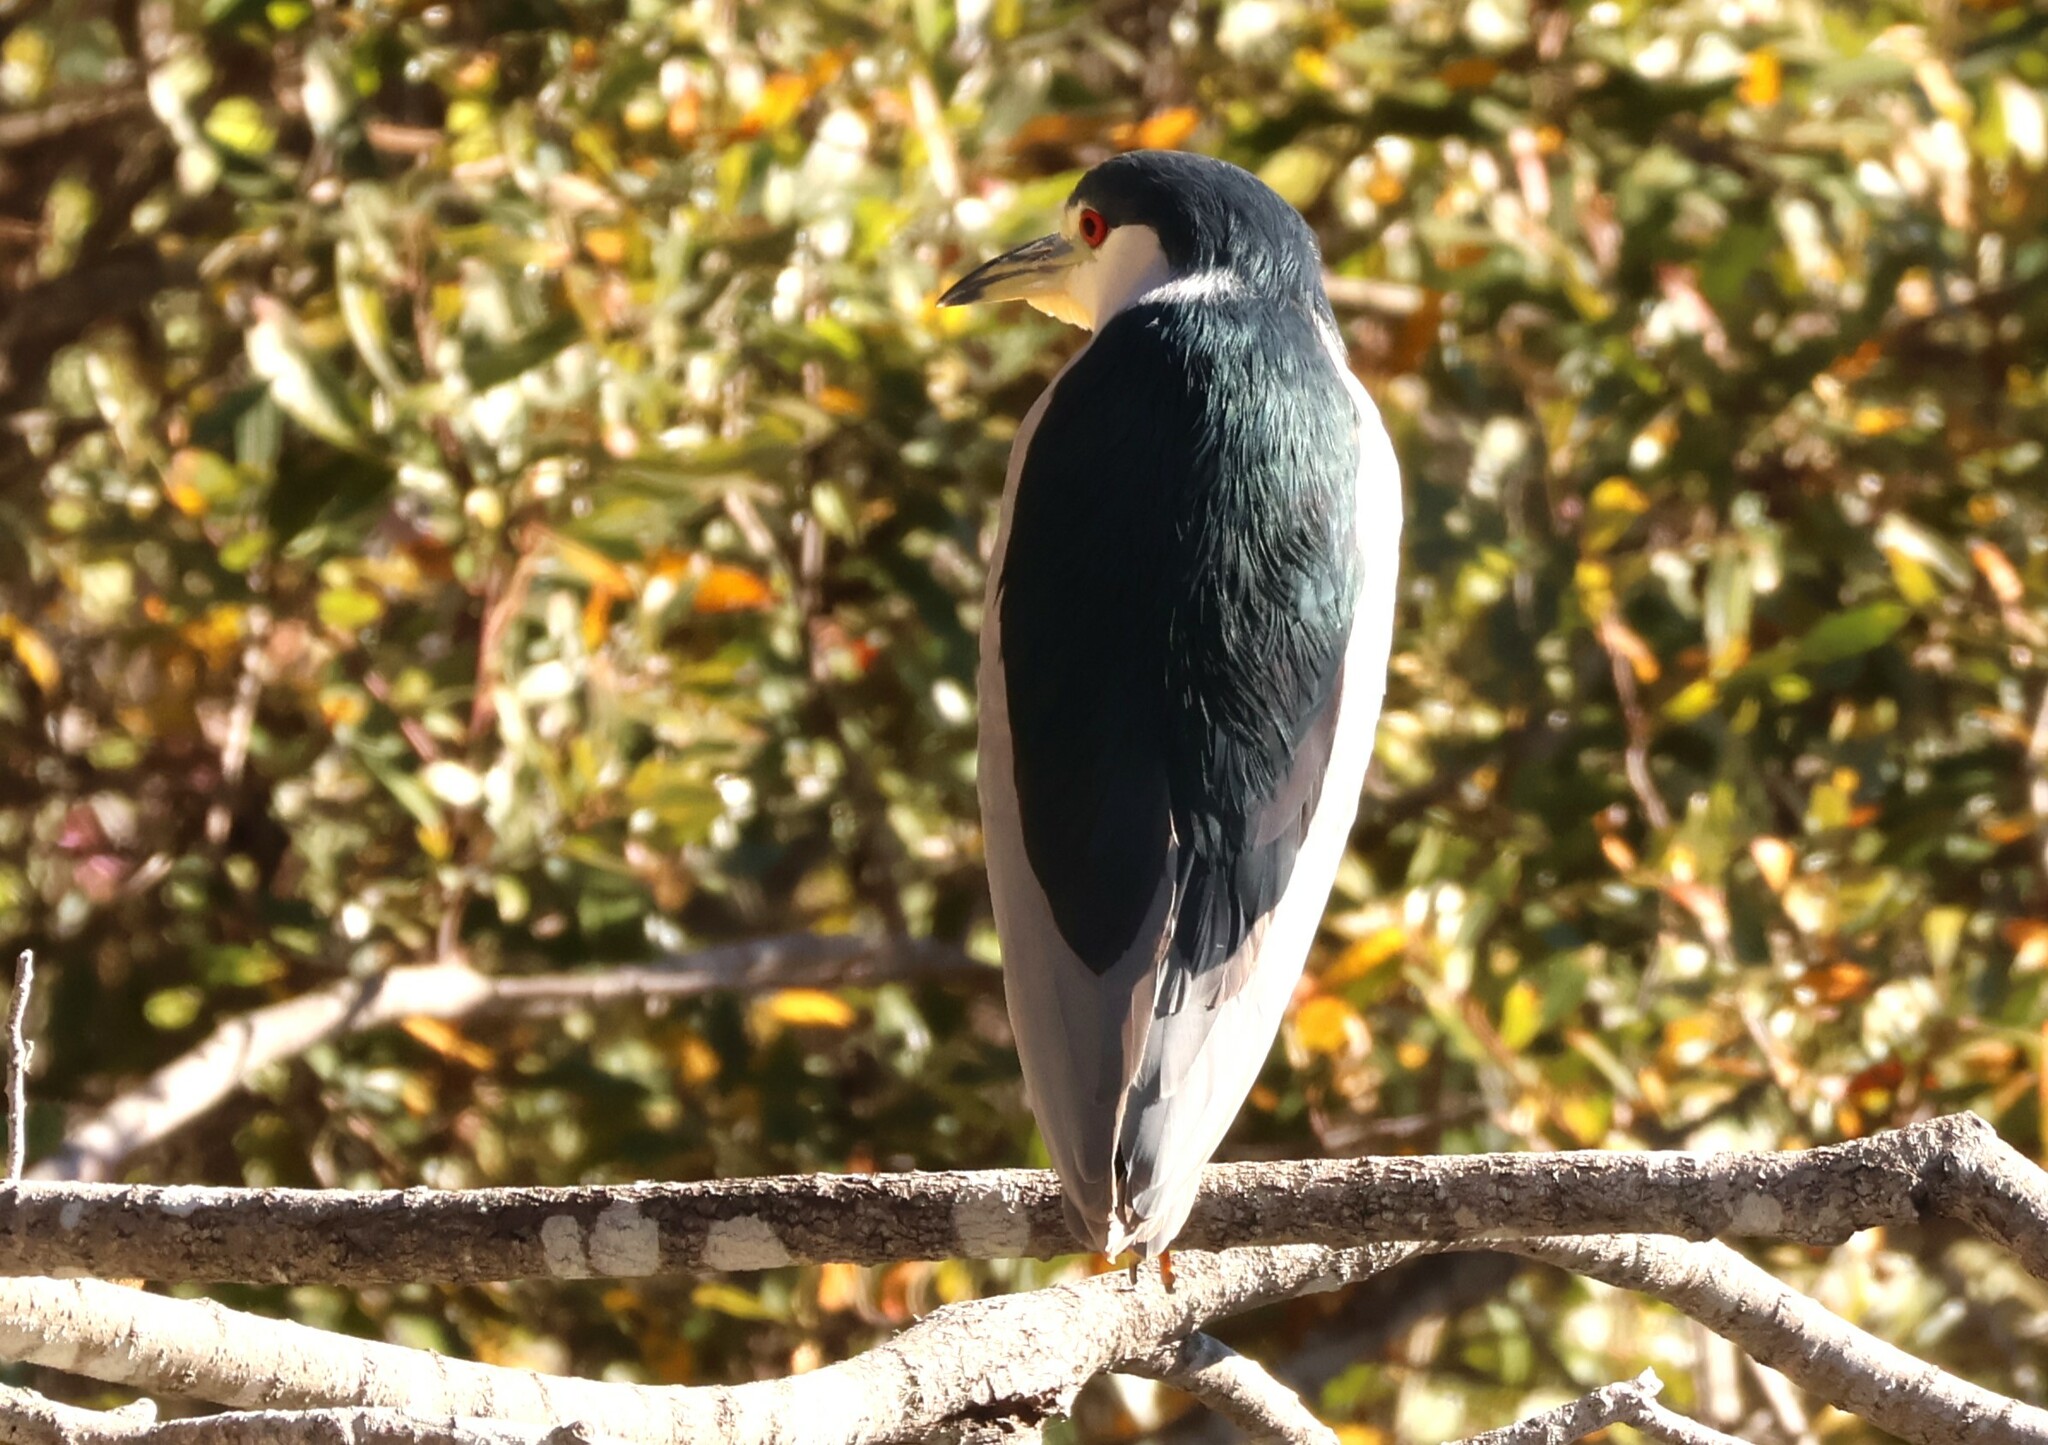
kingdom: Animalia
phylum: Chordata
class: Aves
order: Pelecaniformes
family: Ardeidae
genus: Nycticorax
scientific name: Nycticorax nycticorax
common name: Black-crowned night heron
